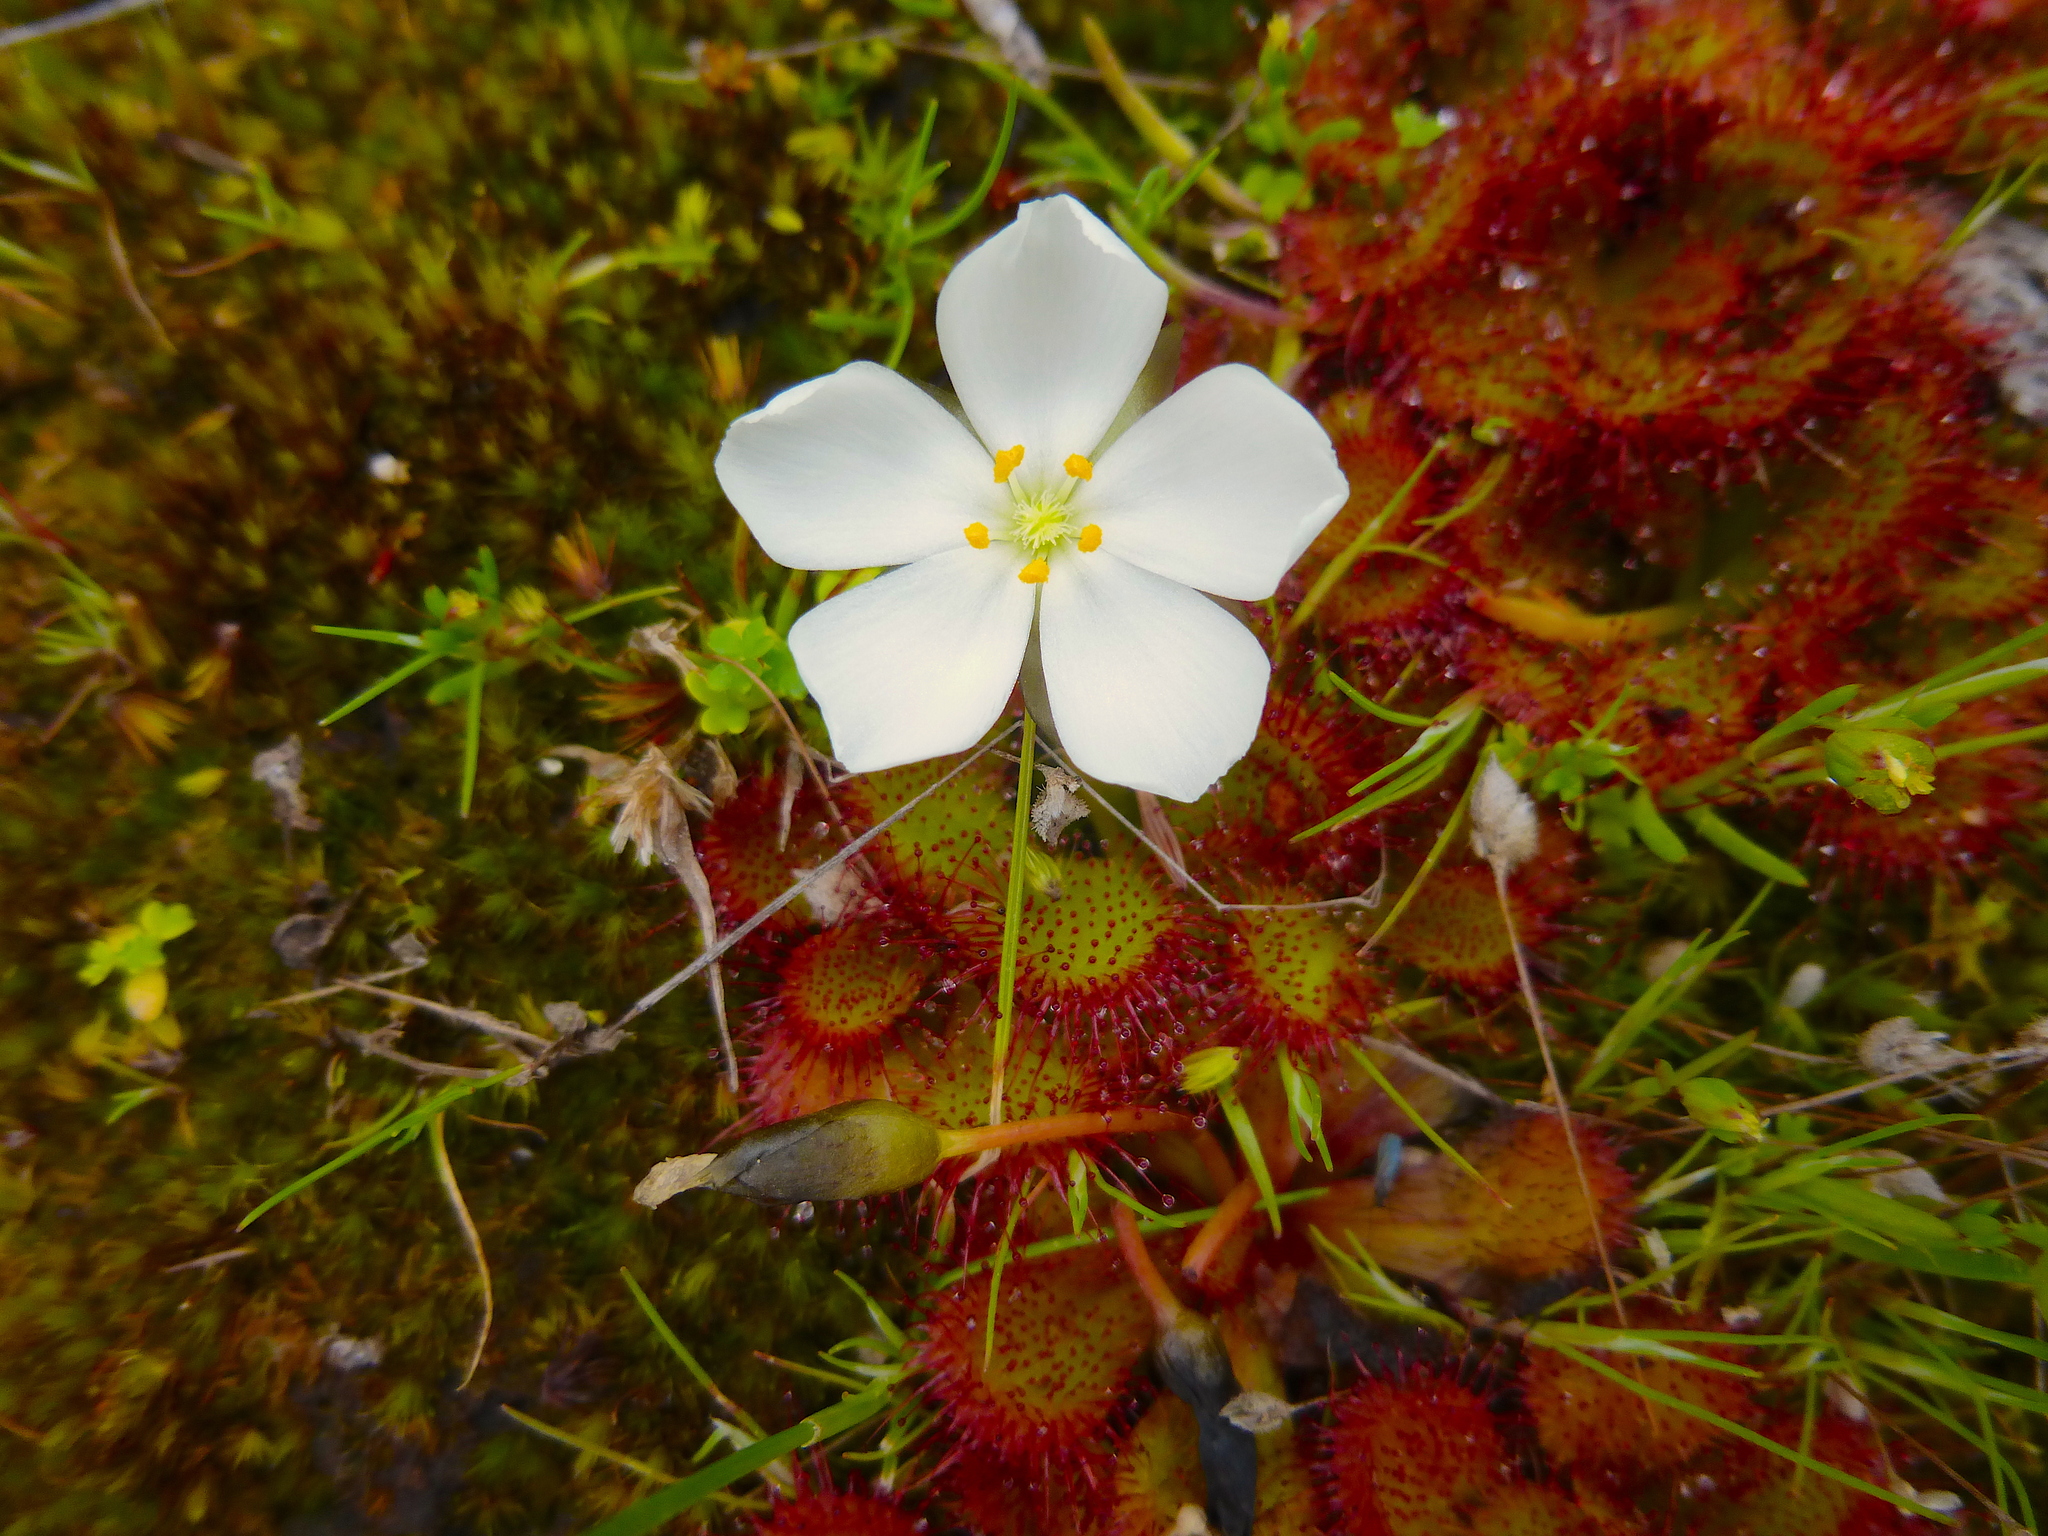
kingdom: Plantae
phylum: Tracheophyta
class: Magnoliopsida
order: Caryophyllales
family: Droseraceae
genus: Drosera
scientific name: Drosera aberrans
